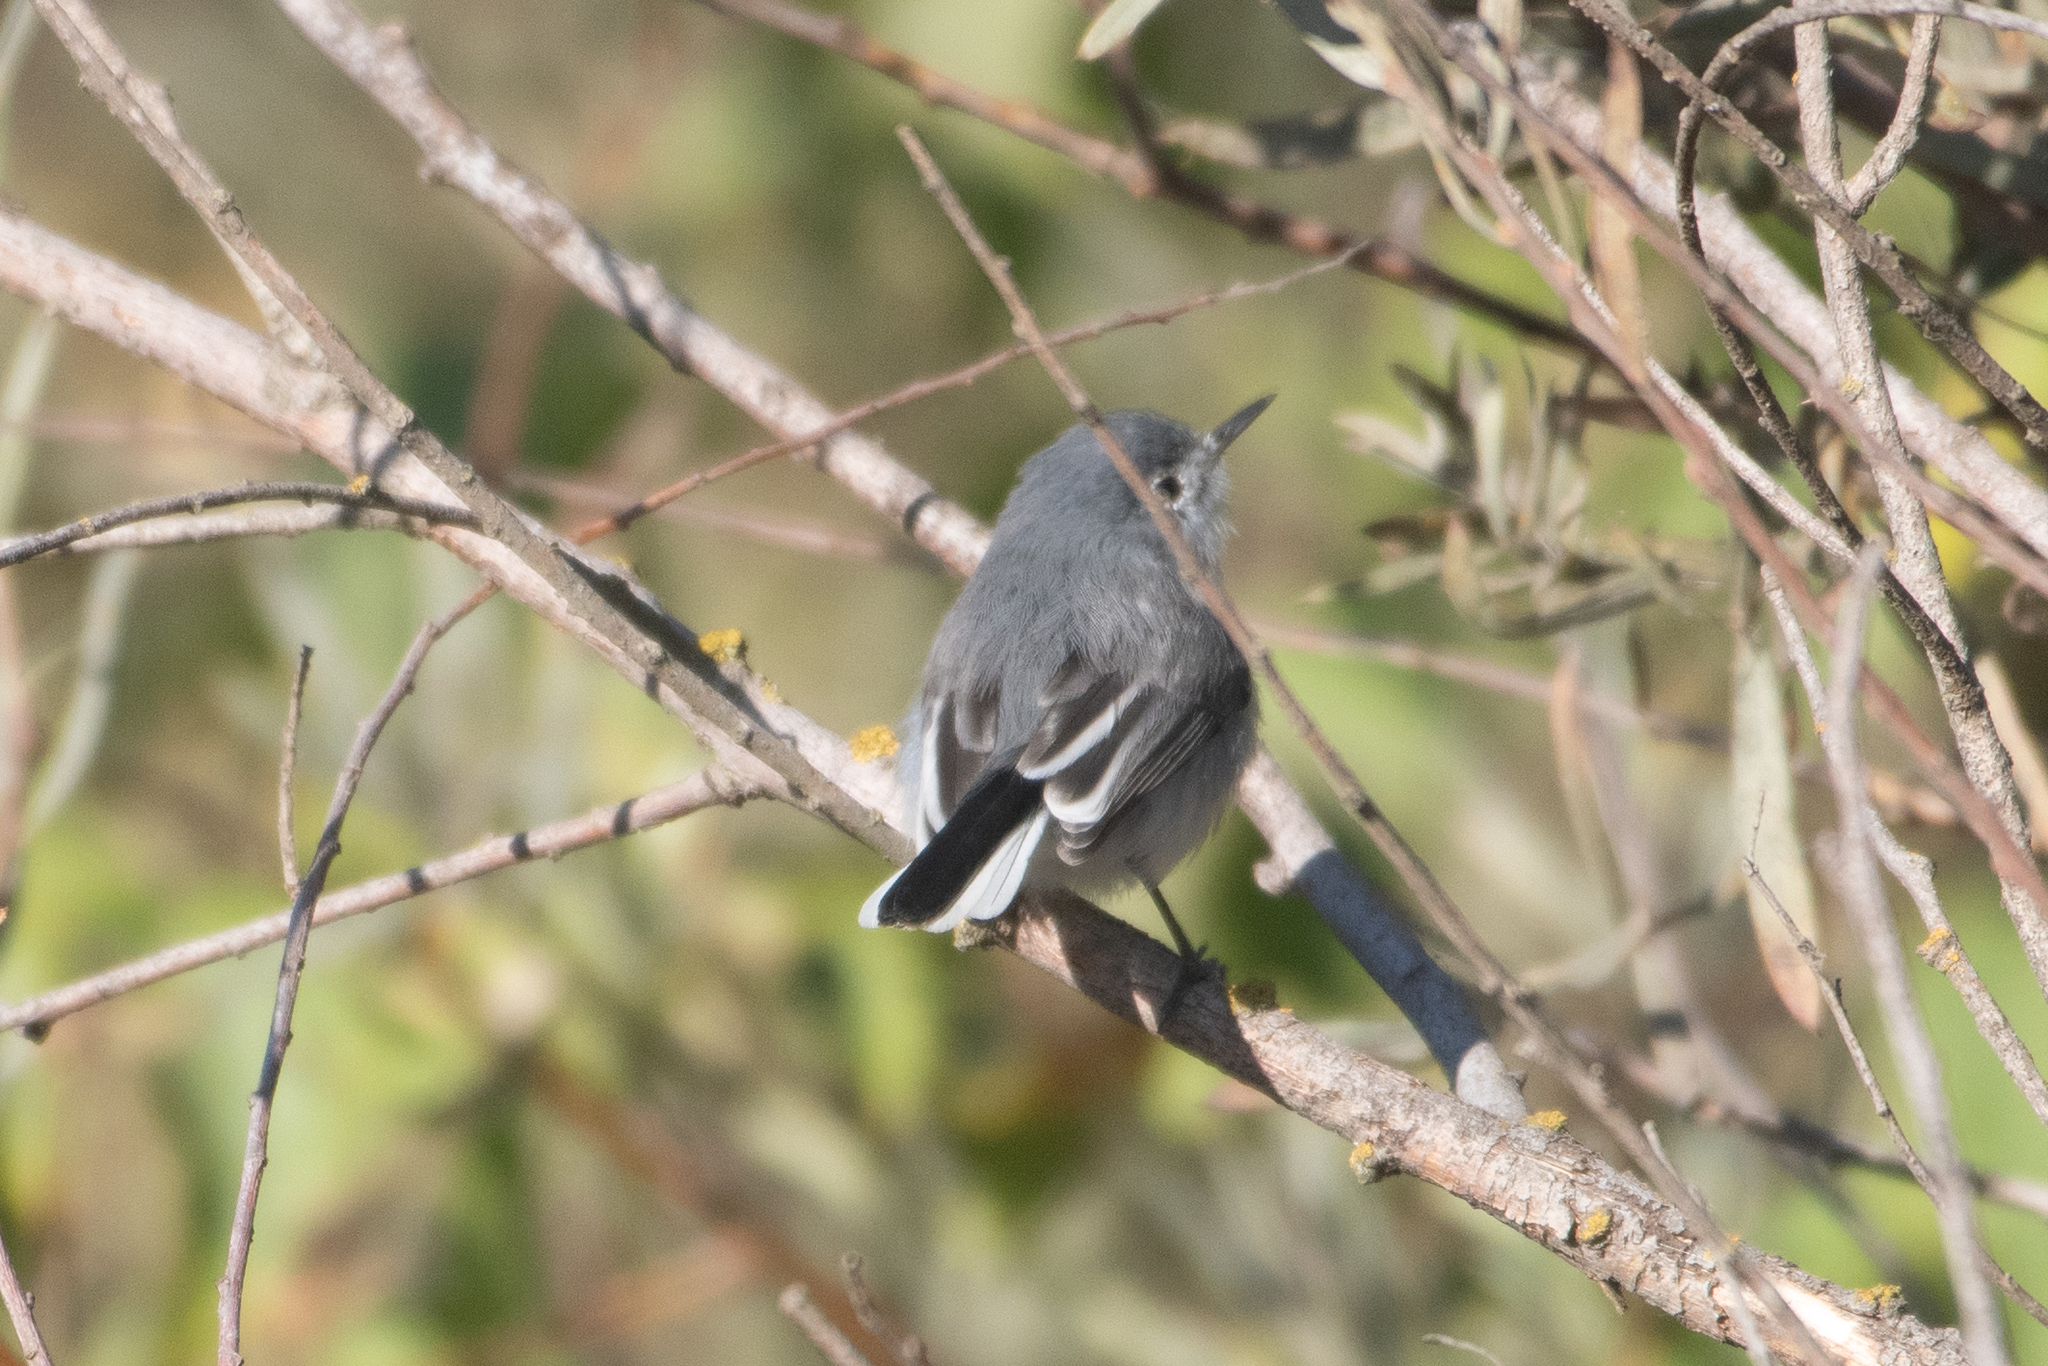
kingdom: Animalia
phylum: Chordata
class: Aves
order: Passeriformes
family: Polioptilidae
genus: Polioptila
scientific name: Polioptila caerulea
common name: Blue-gray gnatcatcher
